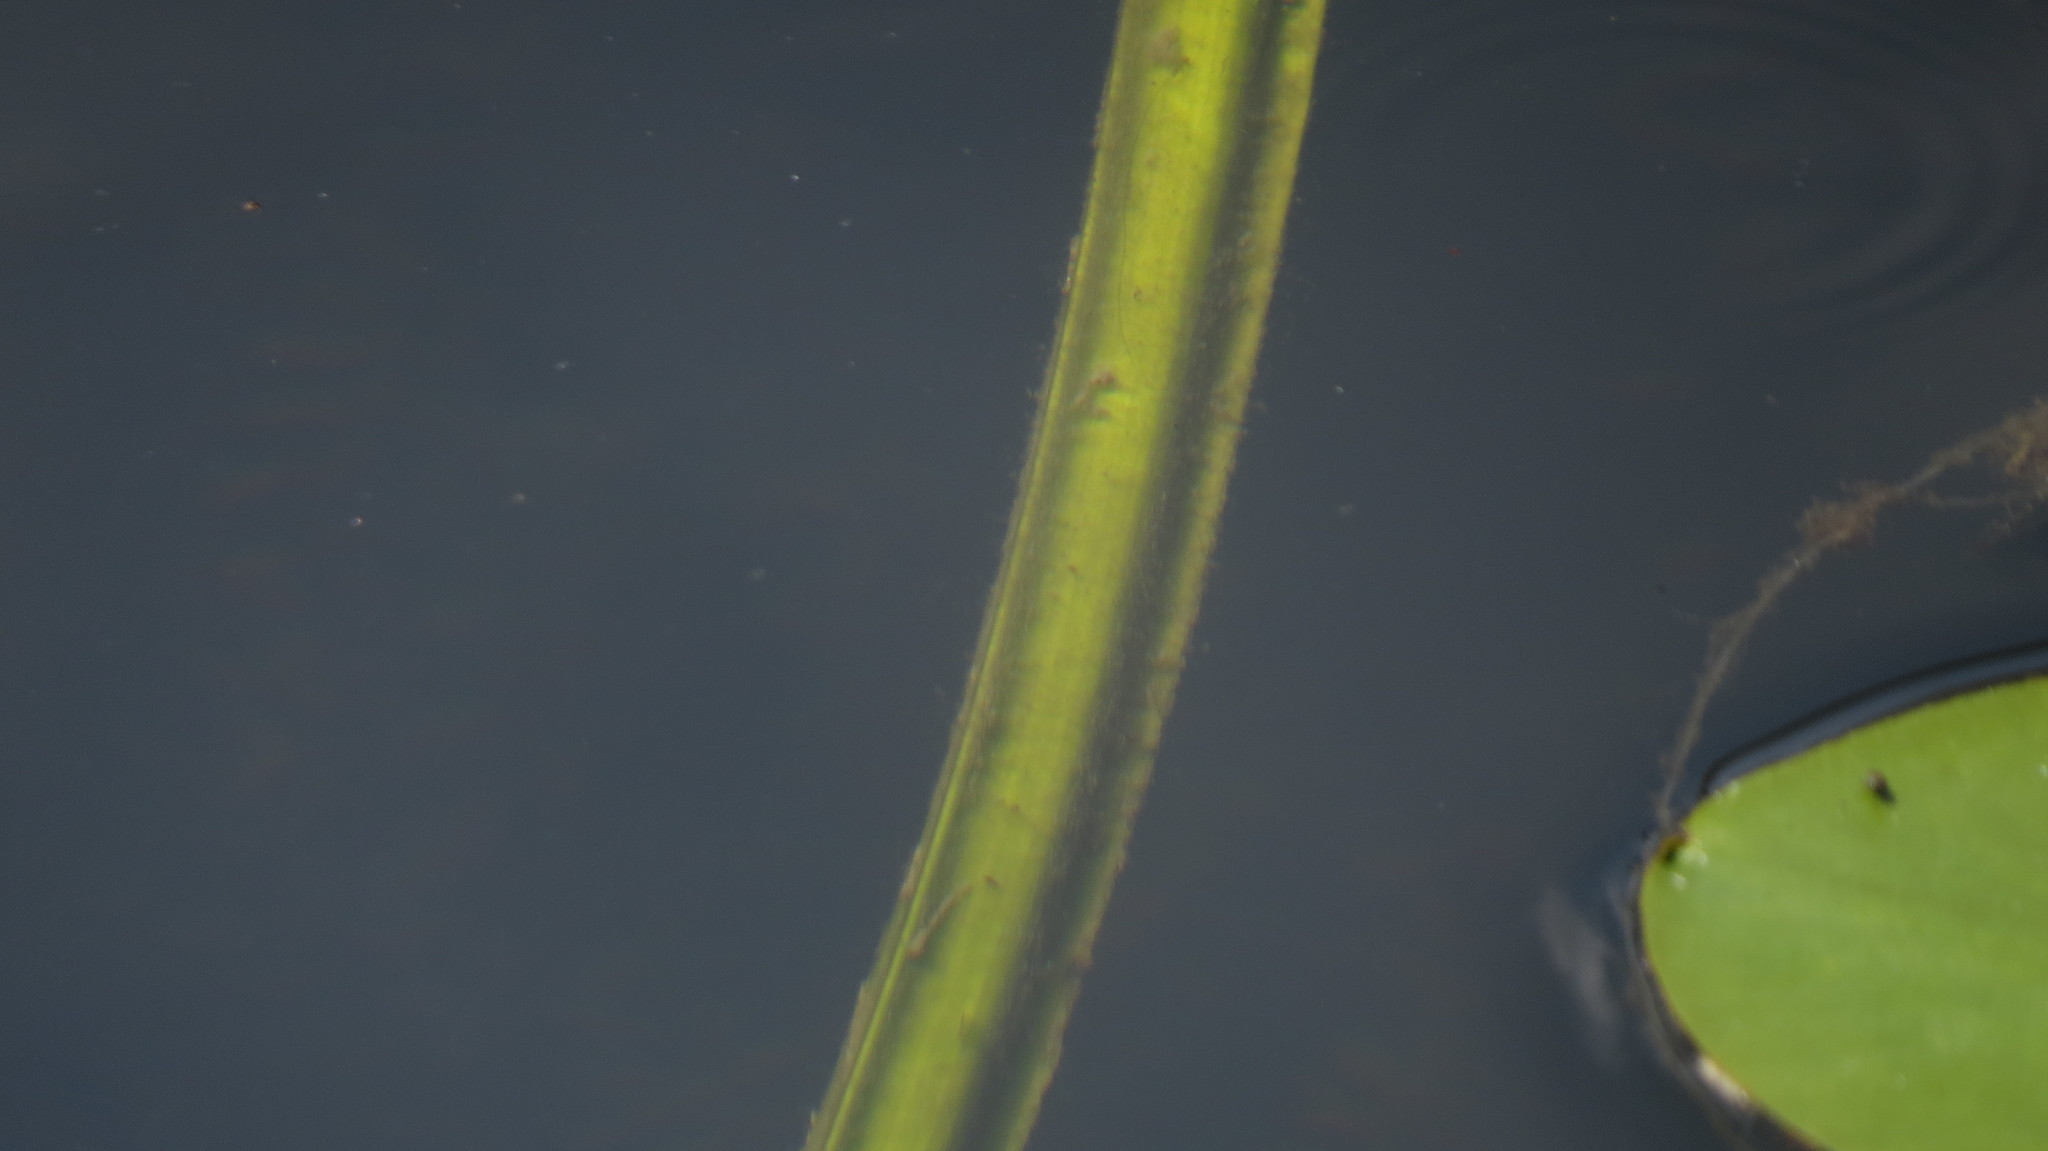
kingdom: Plantae
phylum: Tracheophyta
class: Magnoliopsida
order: Nymphaeales
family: Nymphaeaceae
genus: Nuphar
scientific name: Nuphar variegata
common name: Beaver-root
